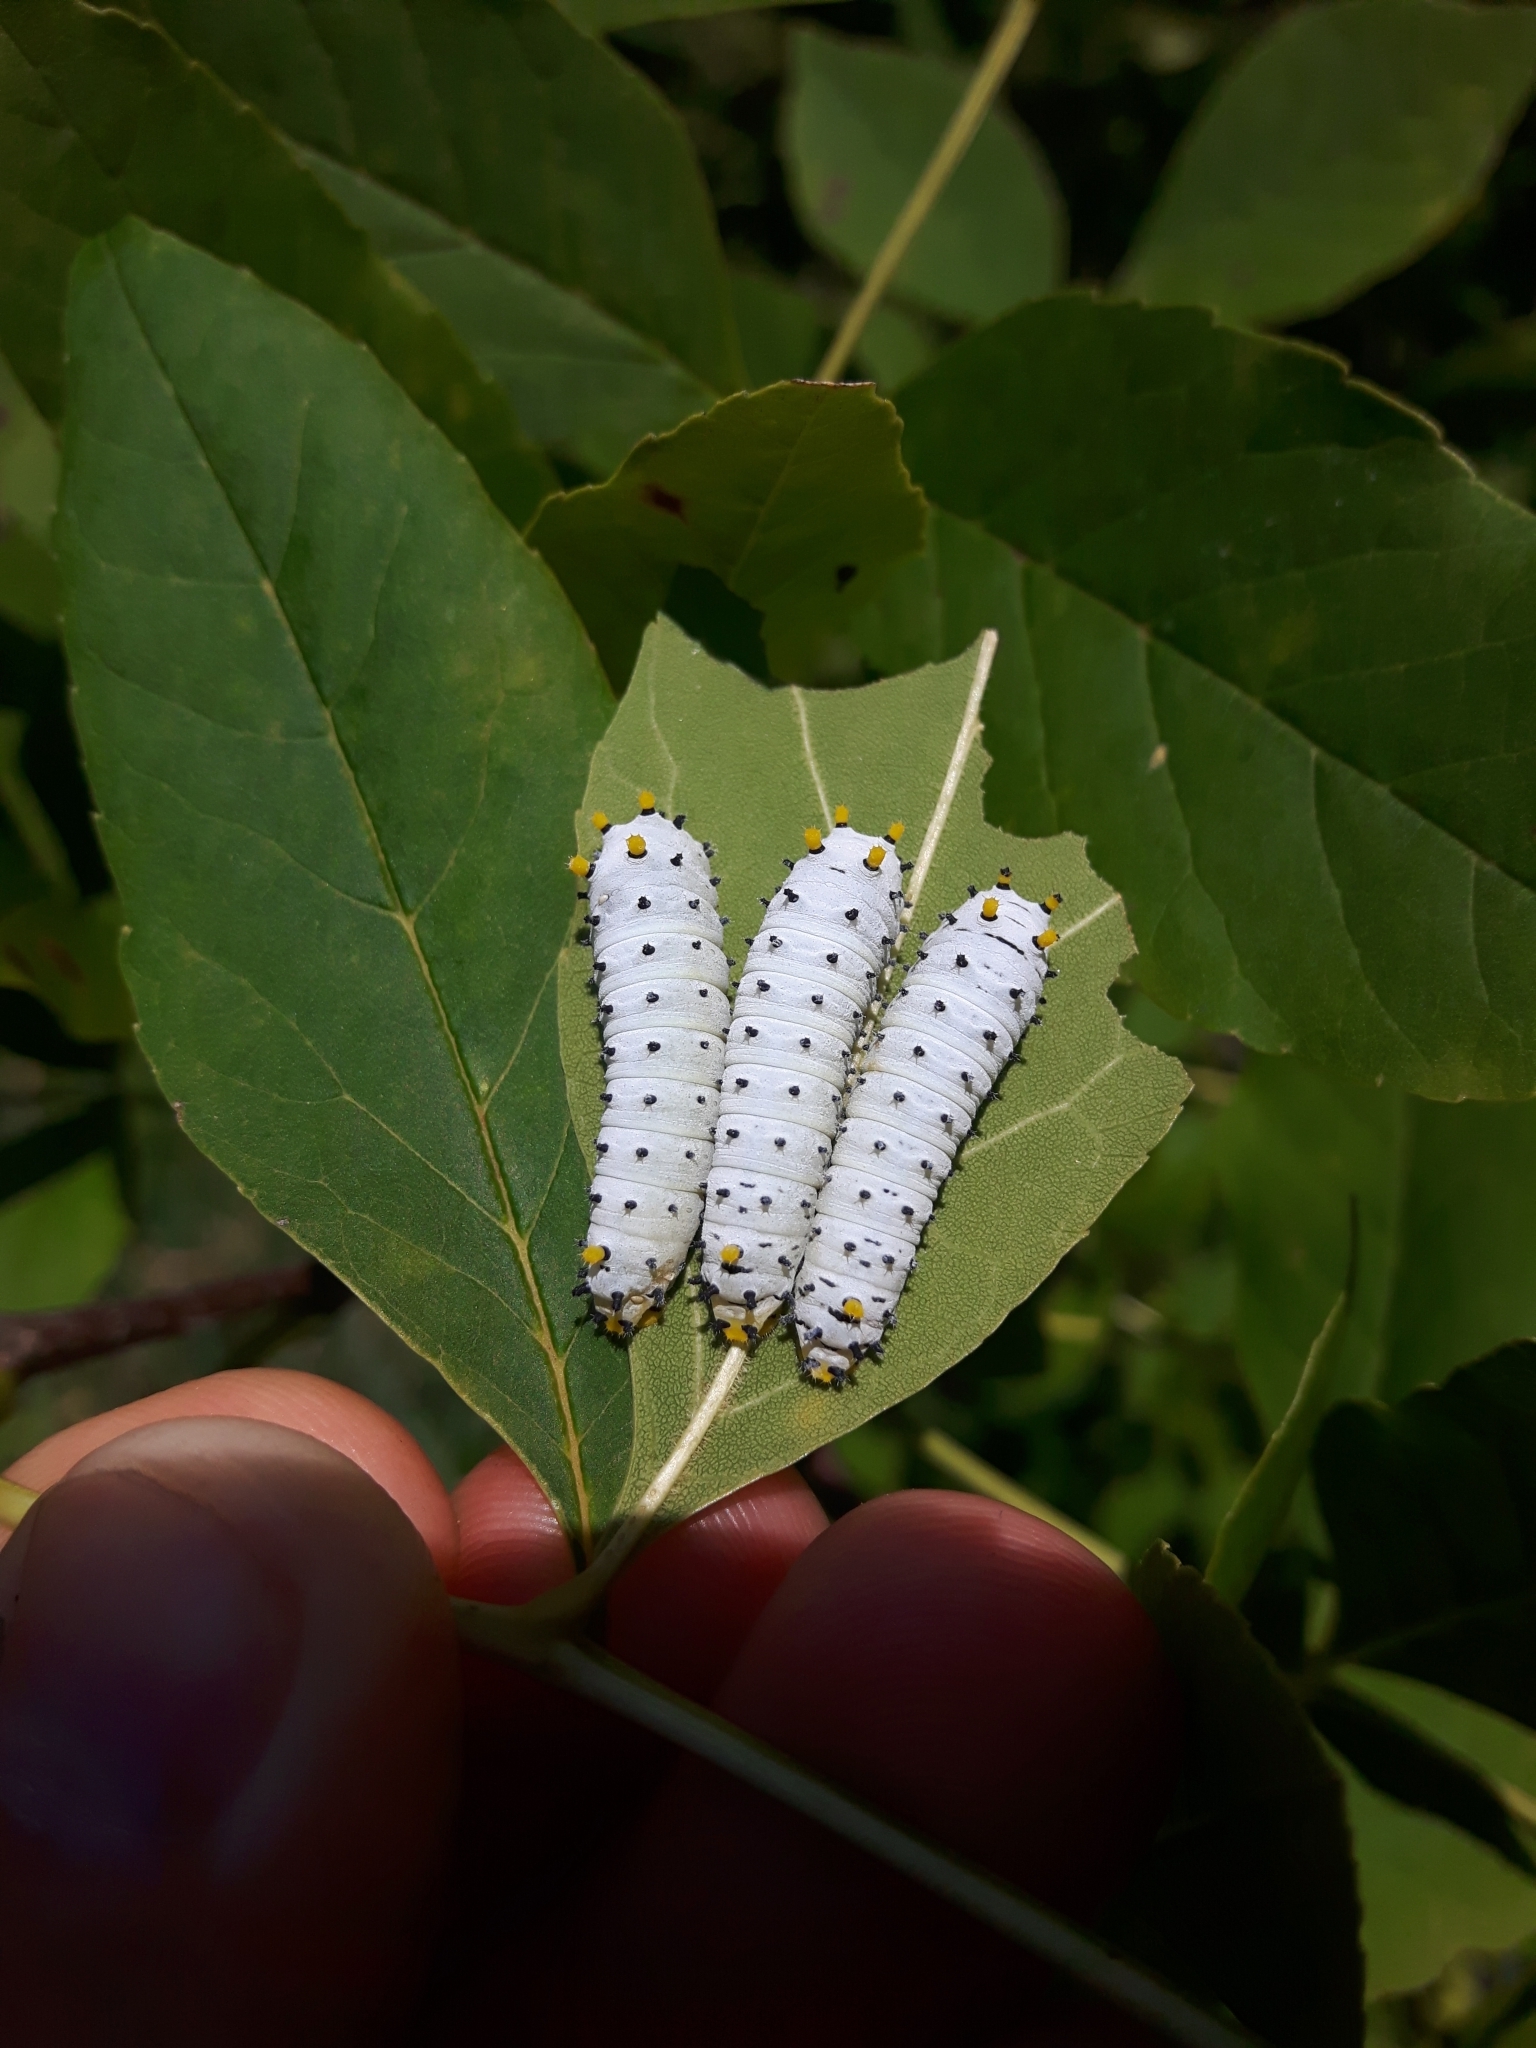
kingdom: Animalia
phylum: Arthropoda
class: Insecta
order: Lepidoptera
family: Saturniidae
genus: Callosamia
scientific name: Callosamia promethea
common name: Promethea silkmoth
